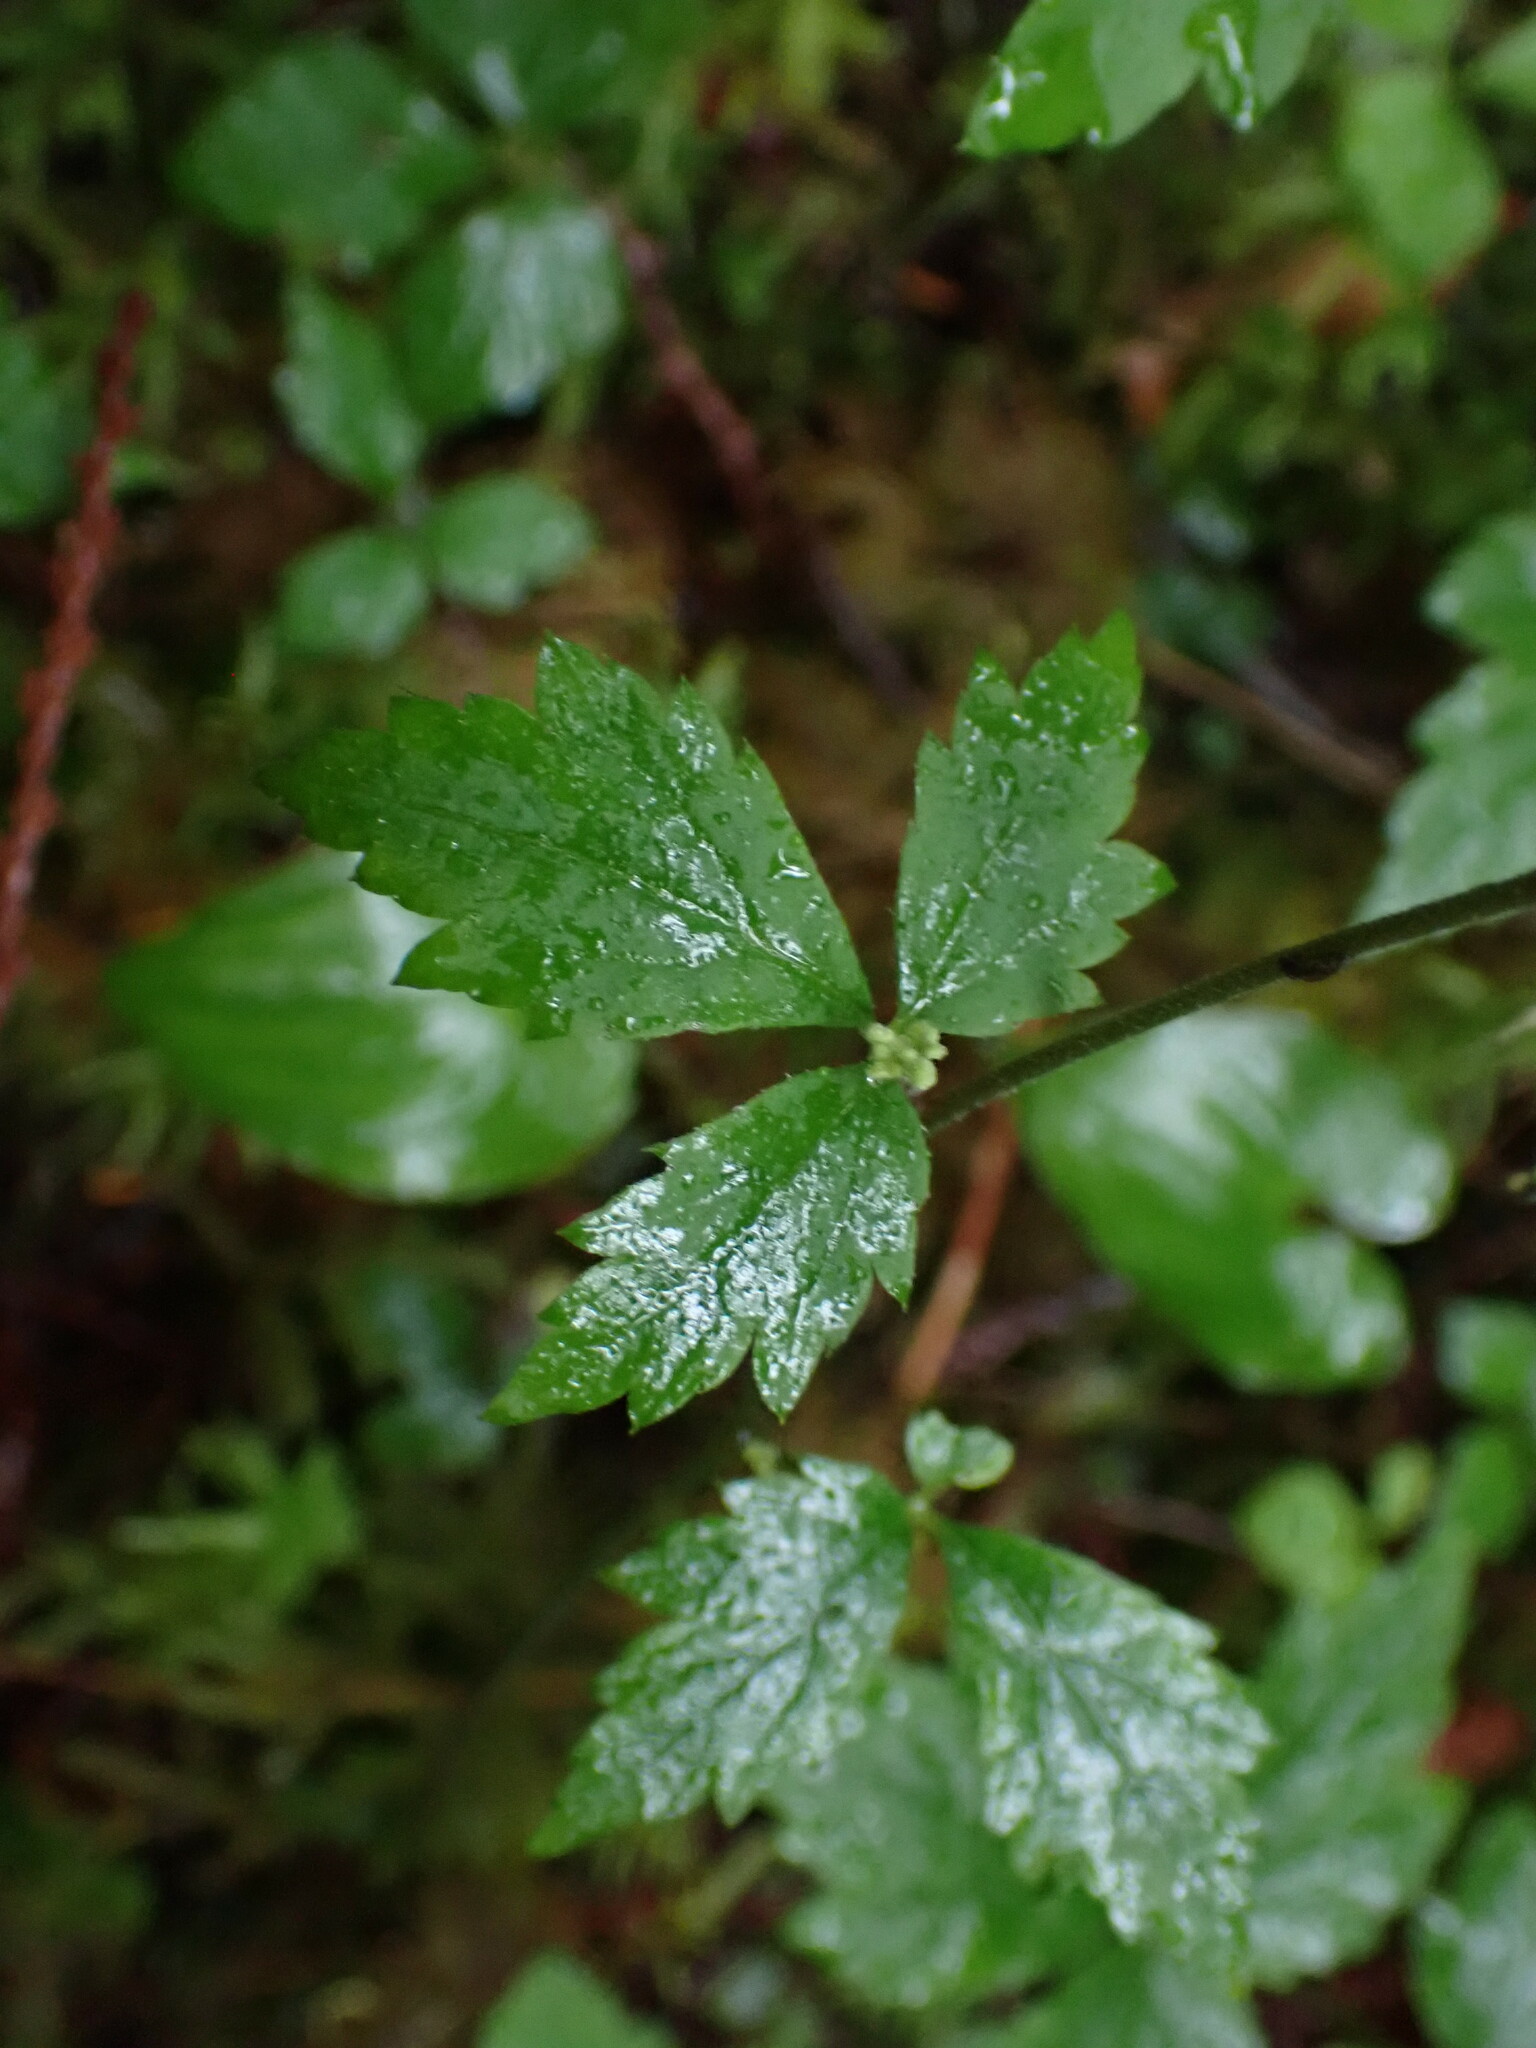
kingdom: Plantae
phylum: Tracheophyta
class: Magnoliopsida
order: Saxifragales
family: Saxifragaceae
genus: Tiarella
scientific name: Tiarella trifoliata
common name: Sugar-scoop
